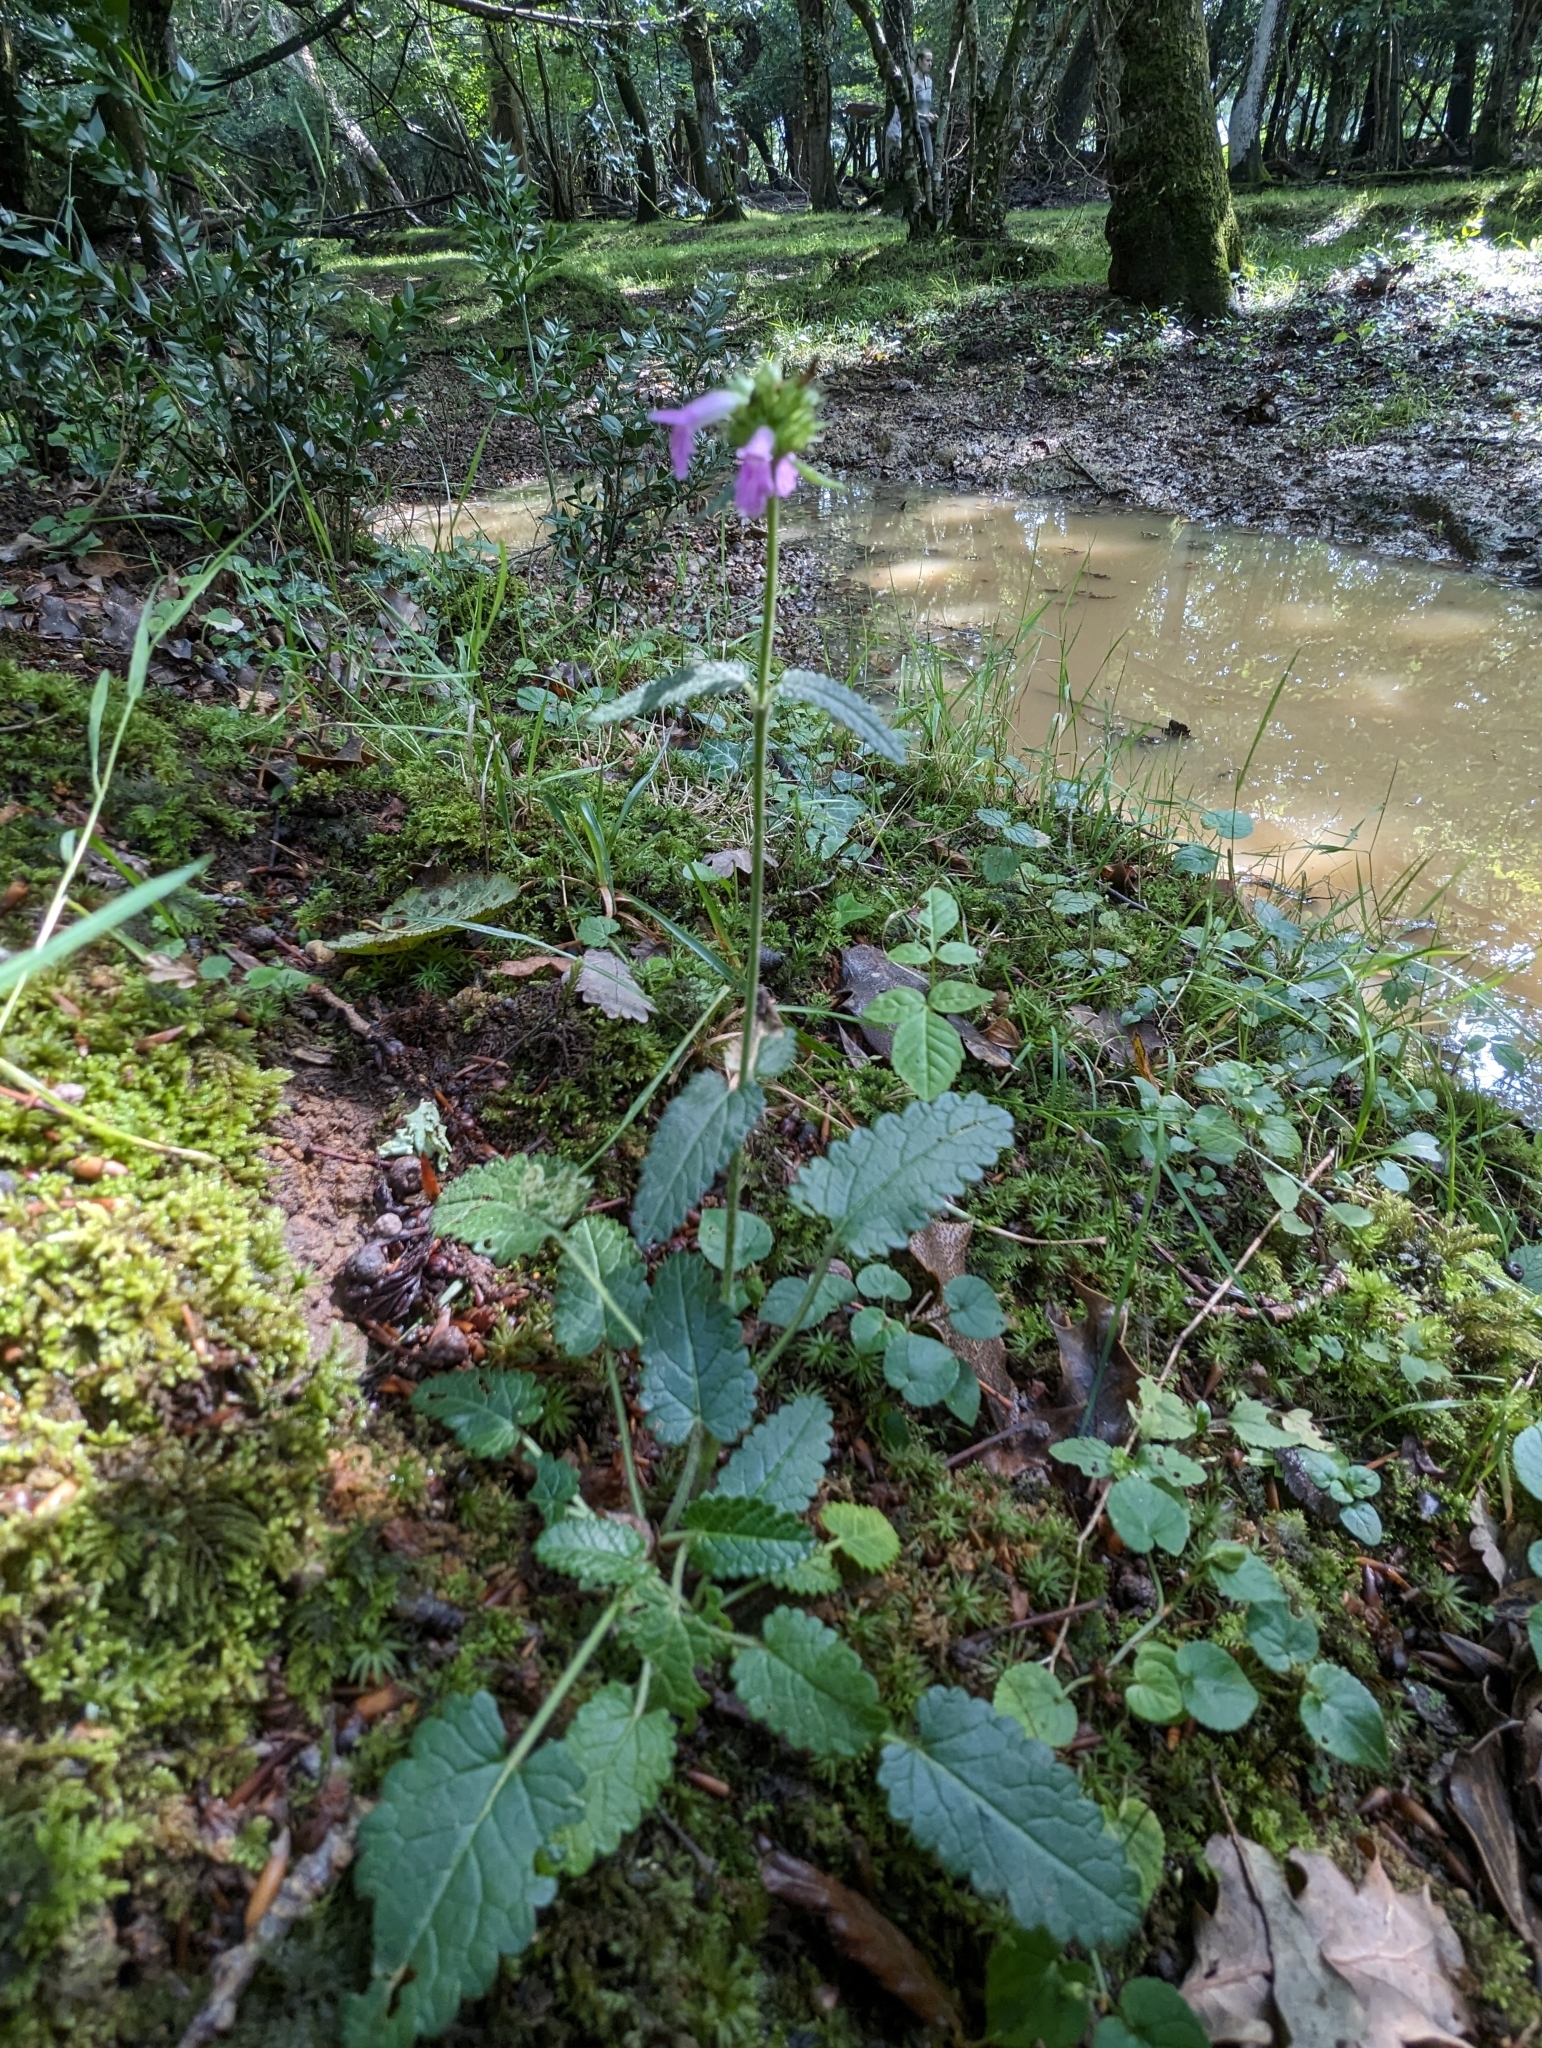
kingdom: Plantae
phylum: Tracheophyta
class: Magnoliopsida
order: Lamiales
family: Lamiaceae
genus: Betonica
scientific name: Betonica officinalis
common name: Bishop's-wort
